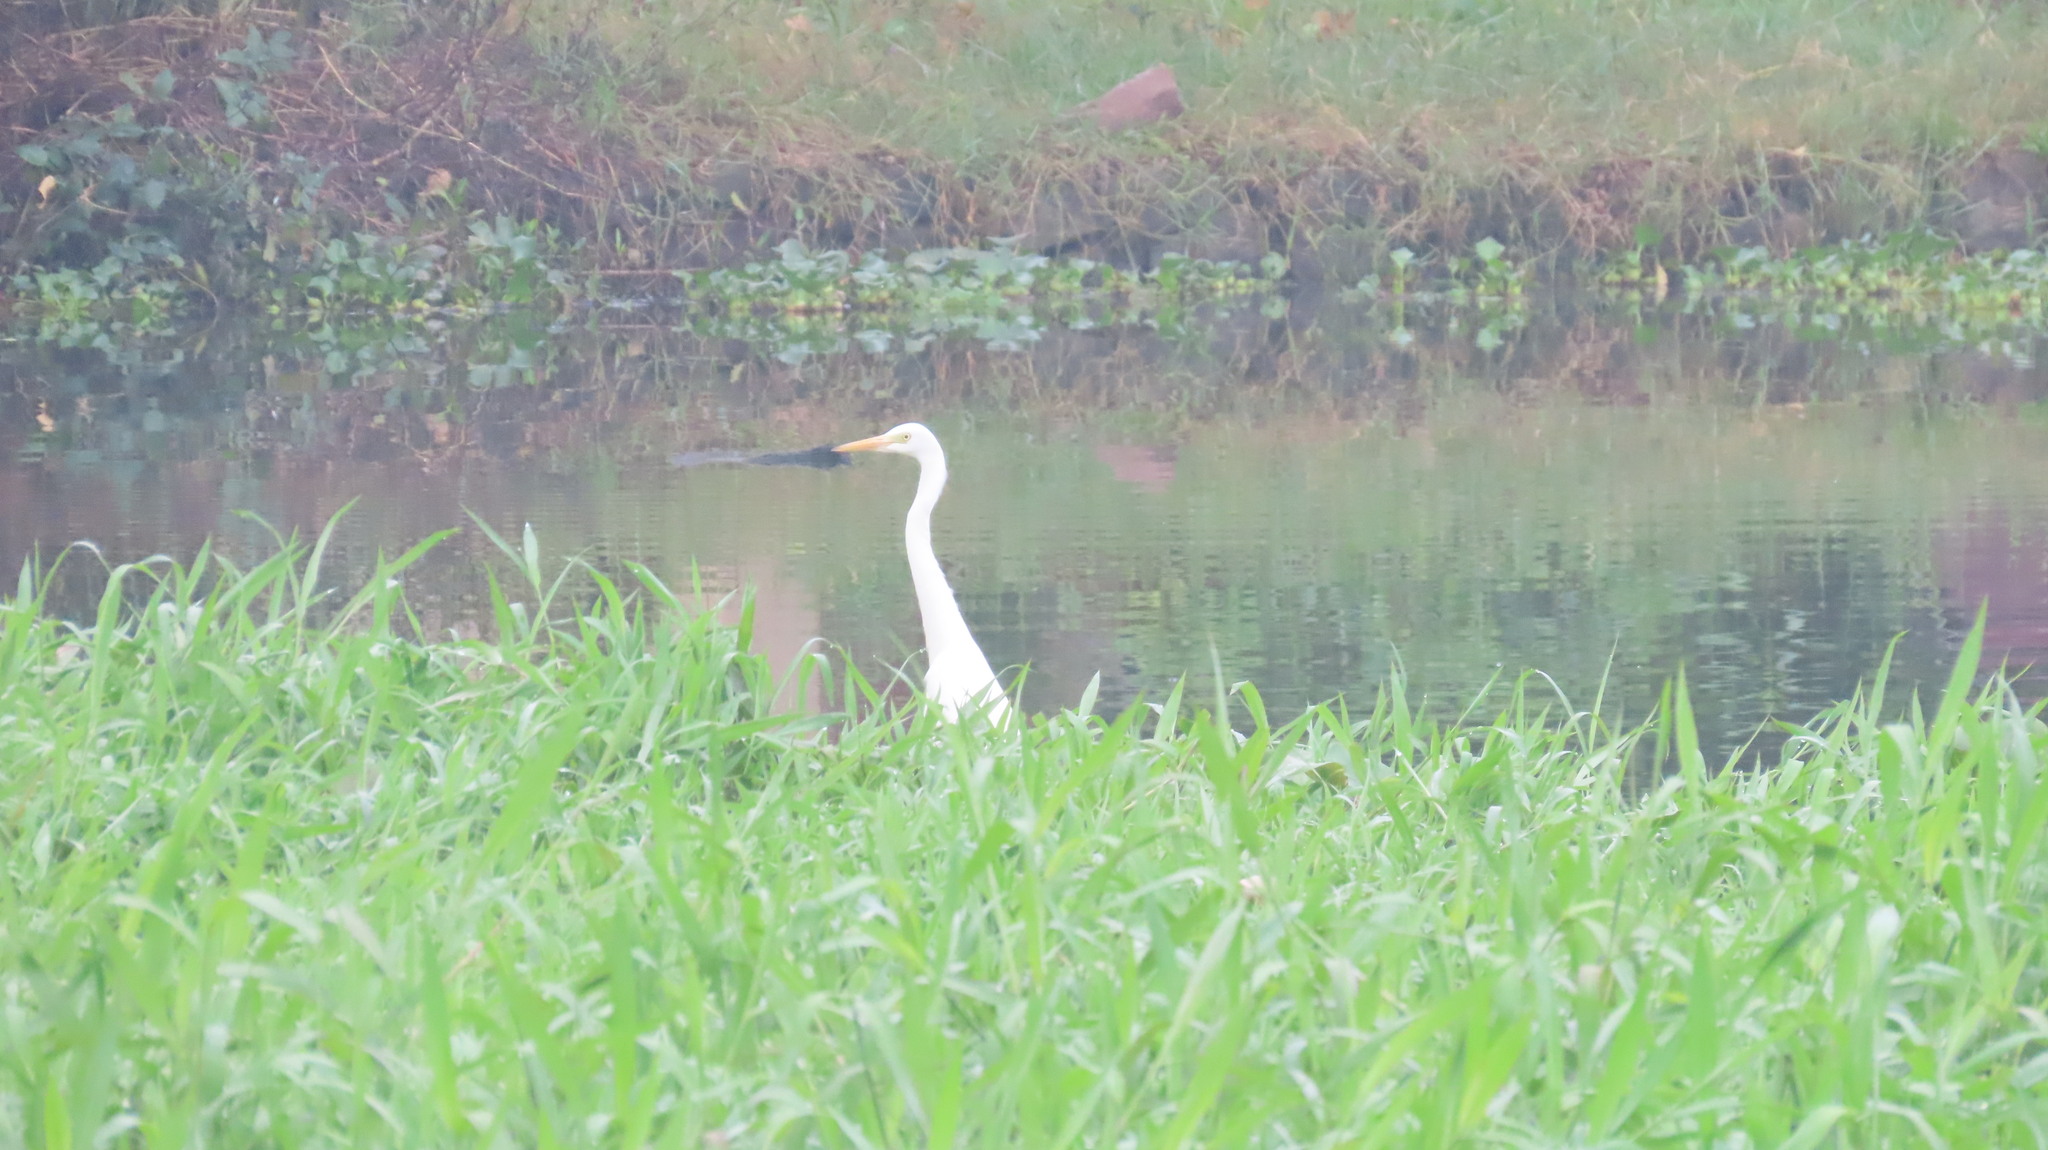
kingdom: Animalia
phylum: Chordata
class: Aves
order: Pelecaniformes
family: Ardeidae
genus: Egretta
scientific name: Egretta intermedia
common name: Intermediate egret
